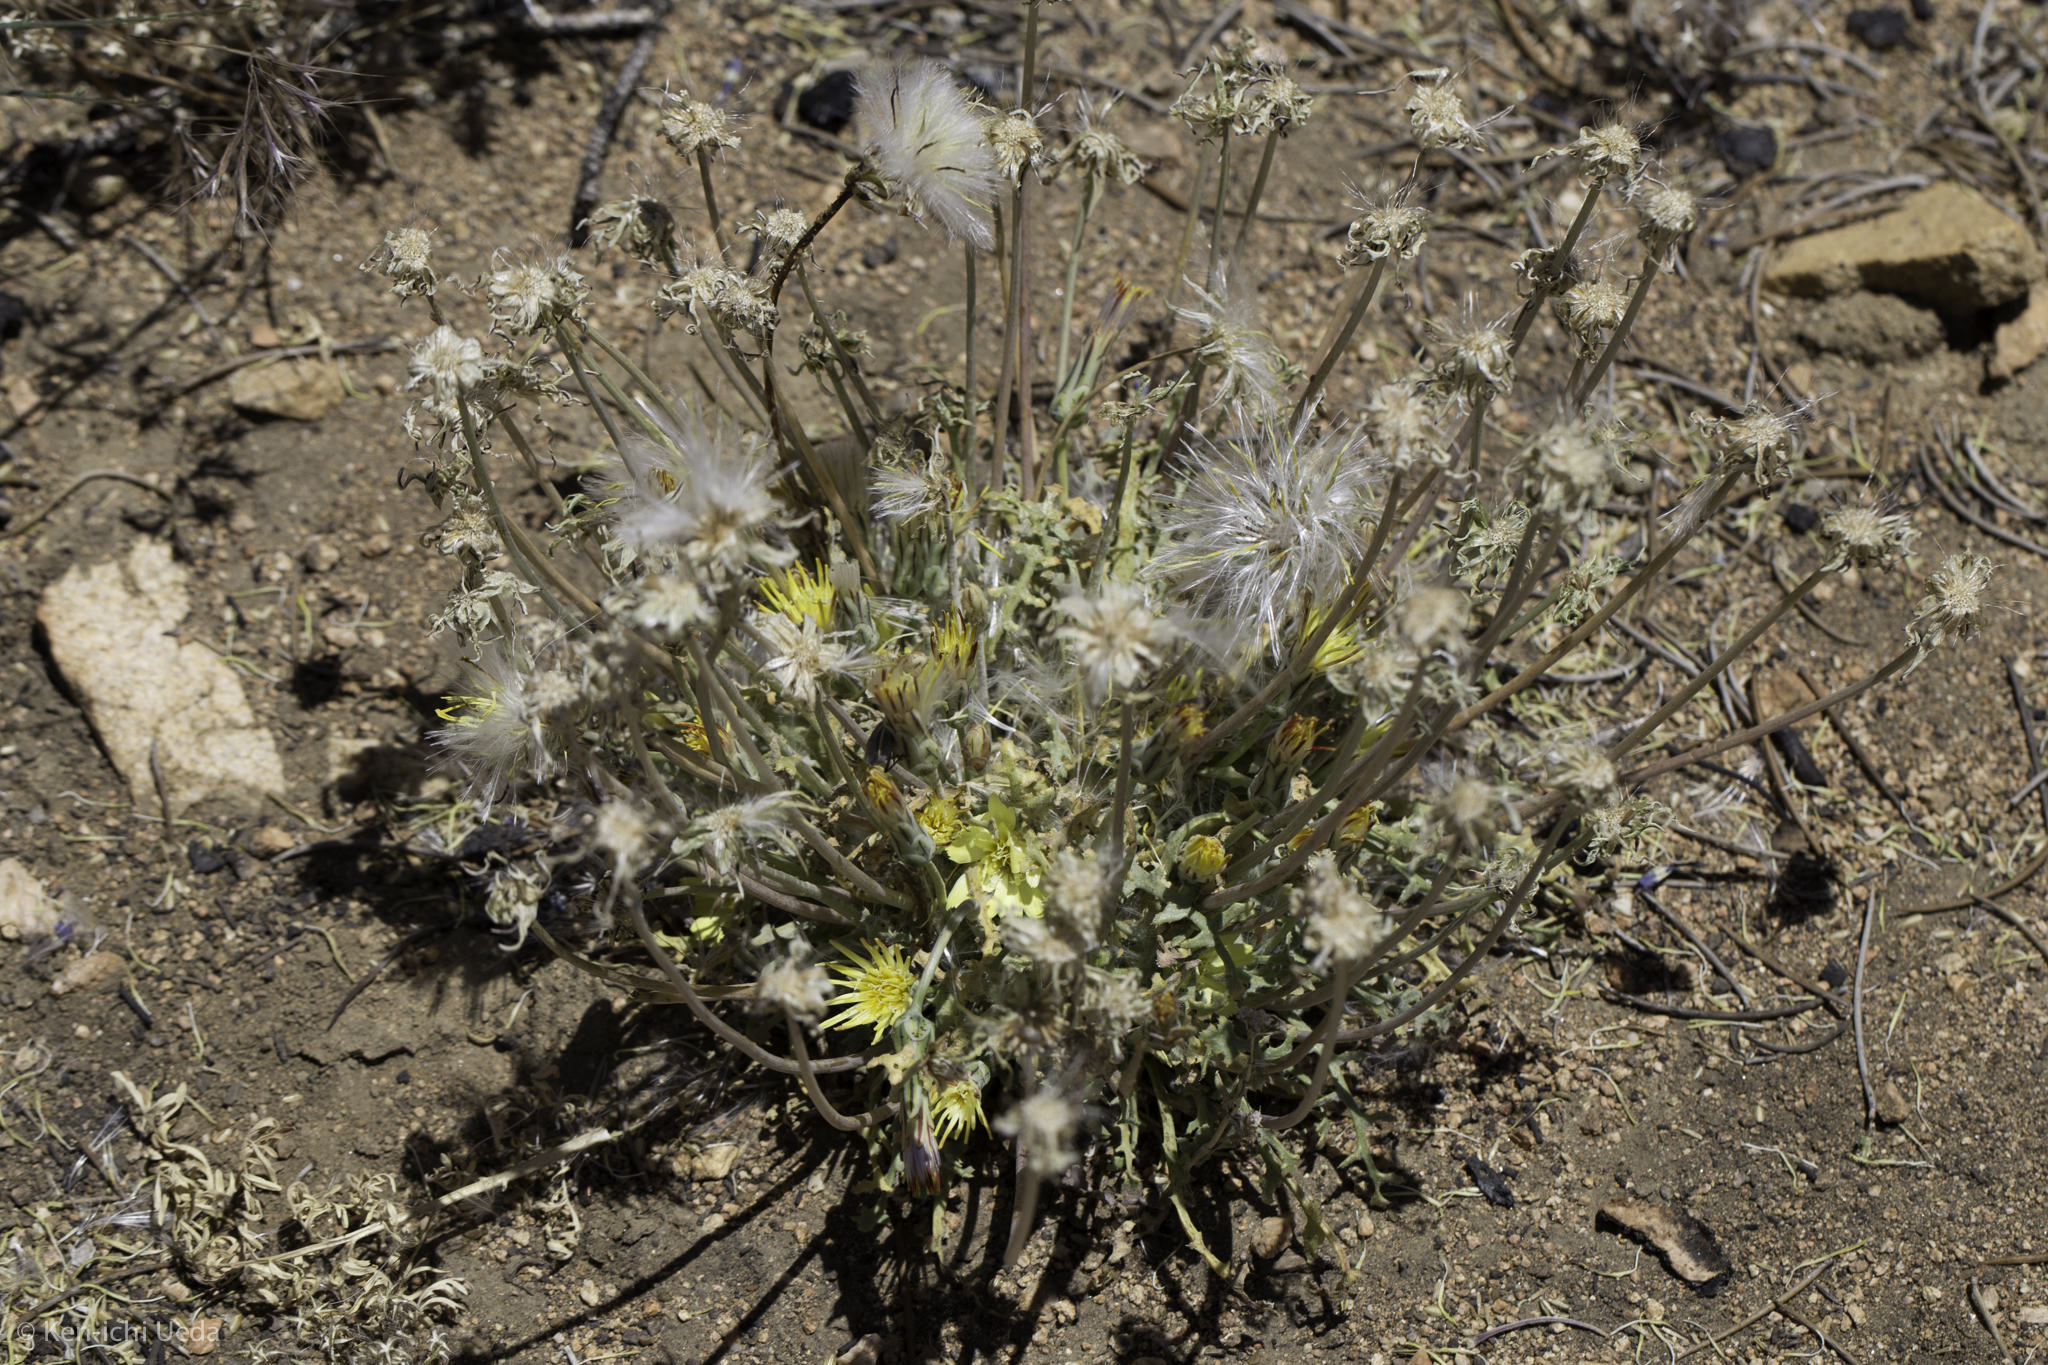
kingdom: Plantae
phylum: Tracheophyta
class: Magnoliopsida
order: Asterales
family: Asteraceae
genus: Anisocoma
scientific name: Anisocoma acaulis
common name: Scalebud
